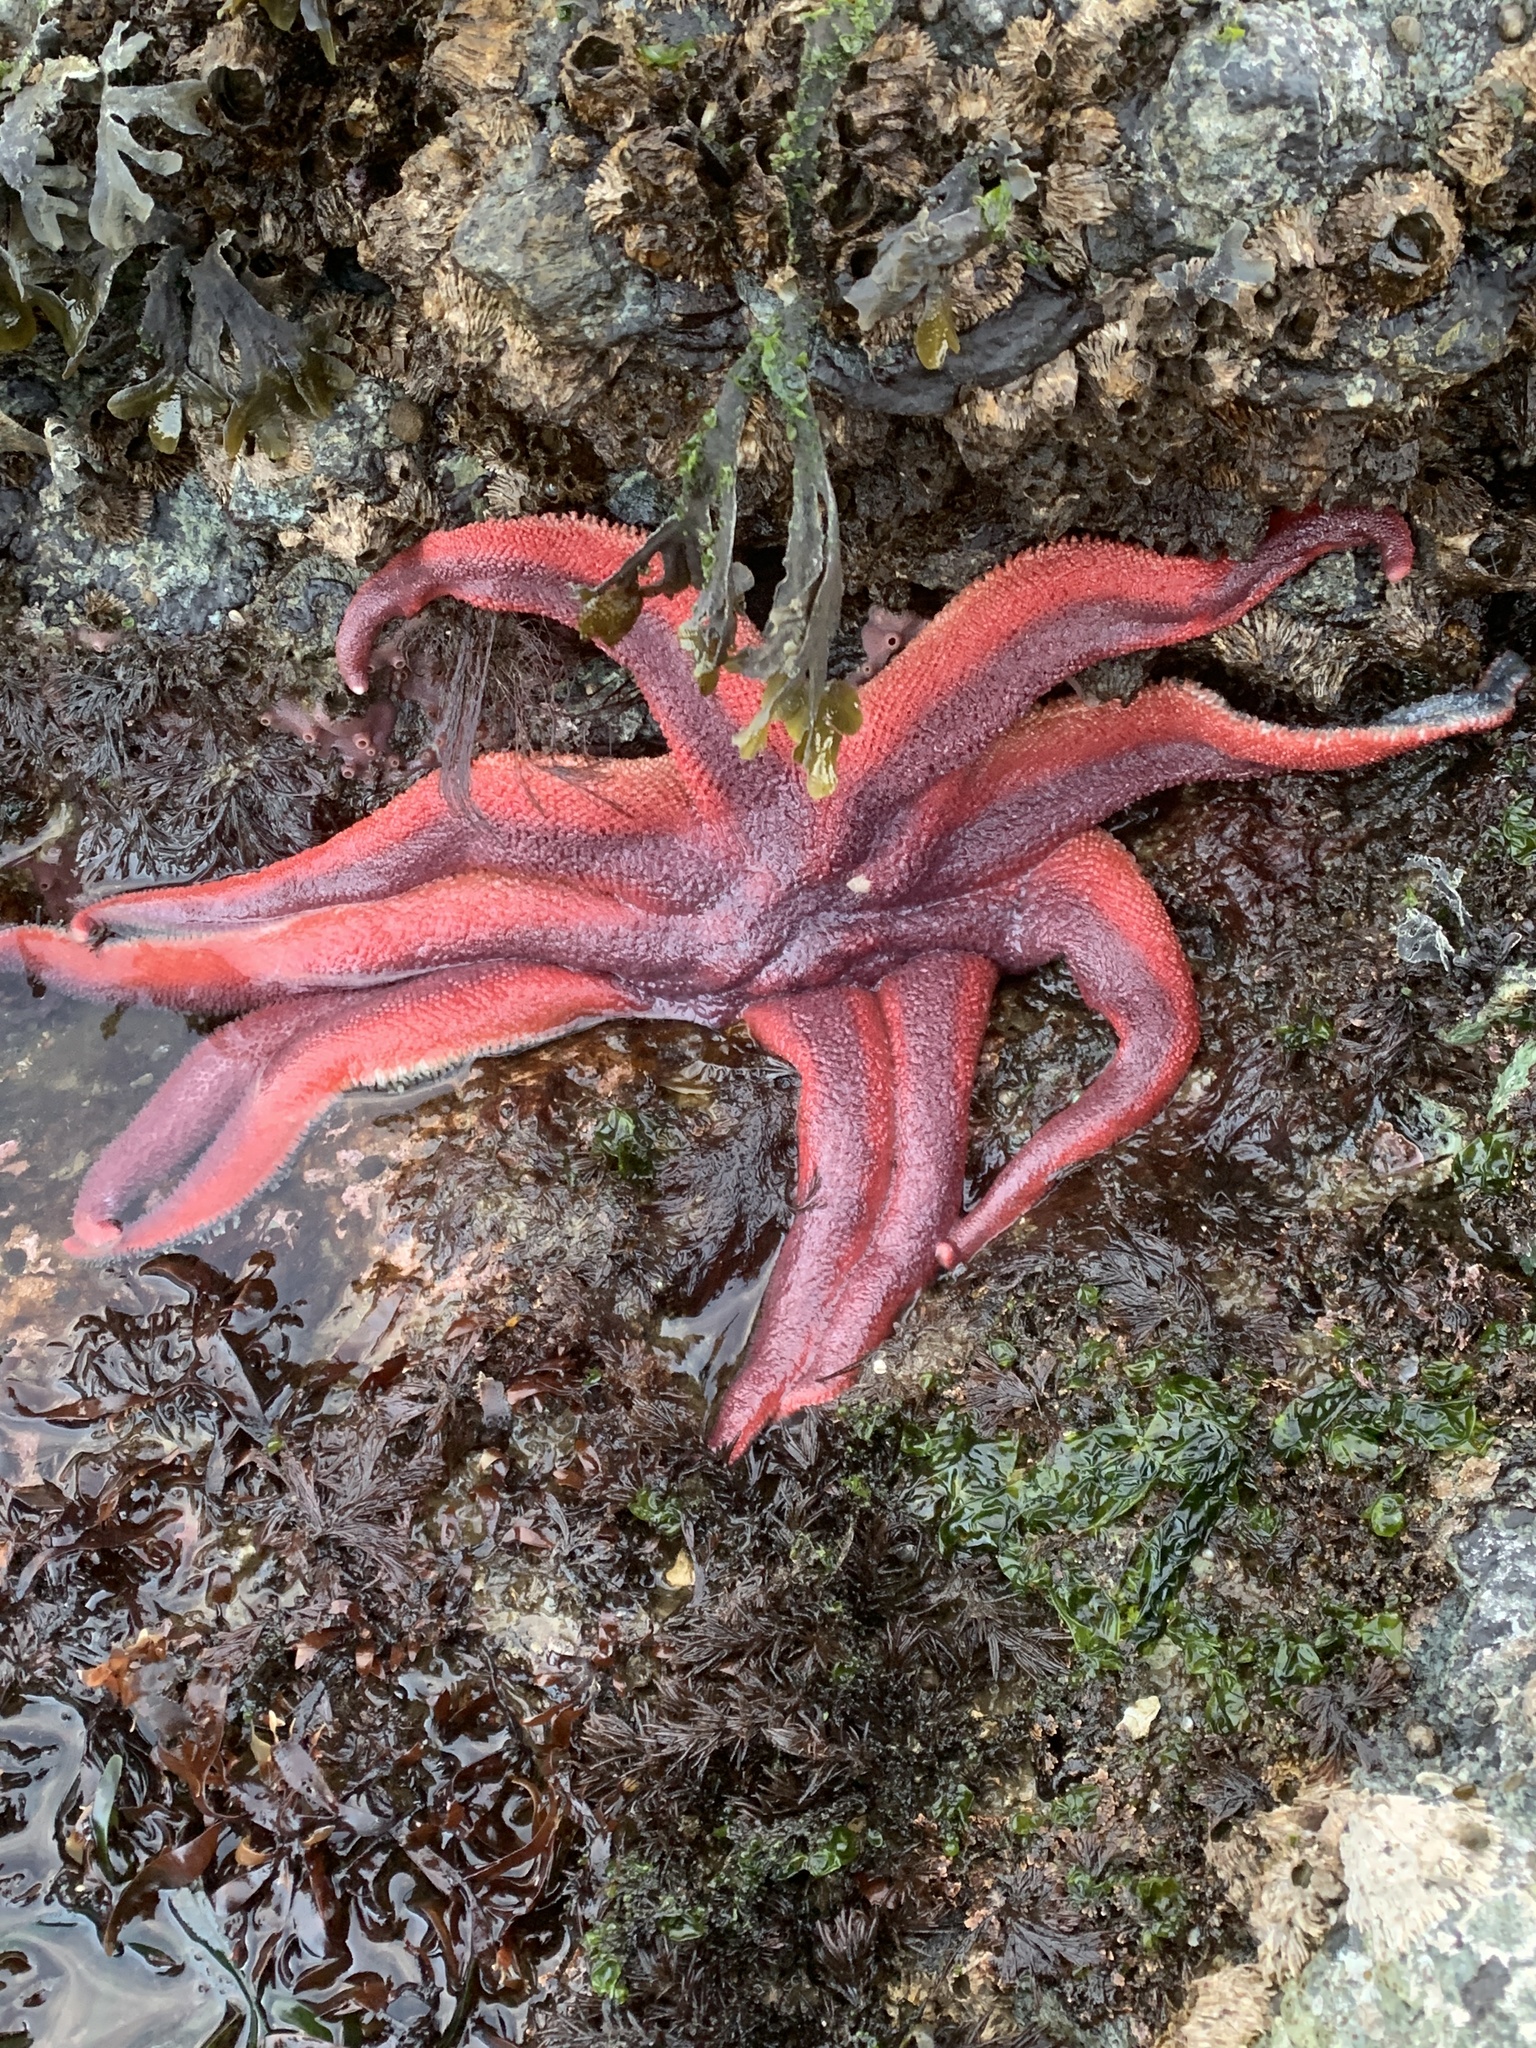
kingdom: Animalia
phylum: Echinodermata
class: Asteroidea
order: Valvatida
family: Solasteridae
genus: Solaster
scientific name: Solaster stimpsoni
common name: Orange sun star
